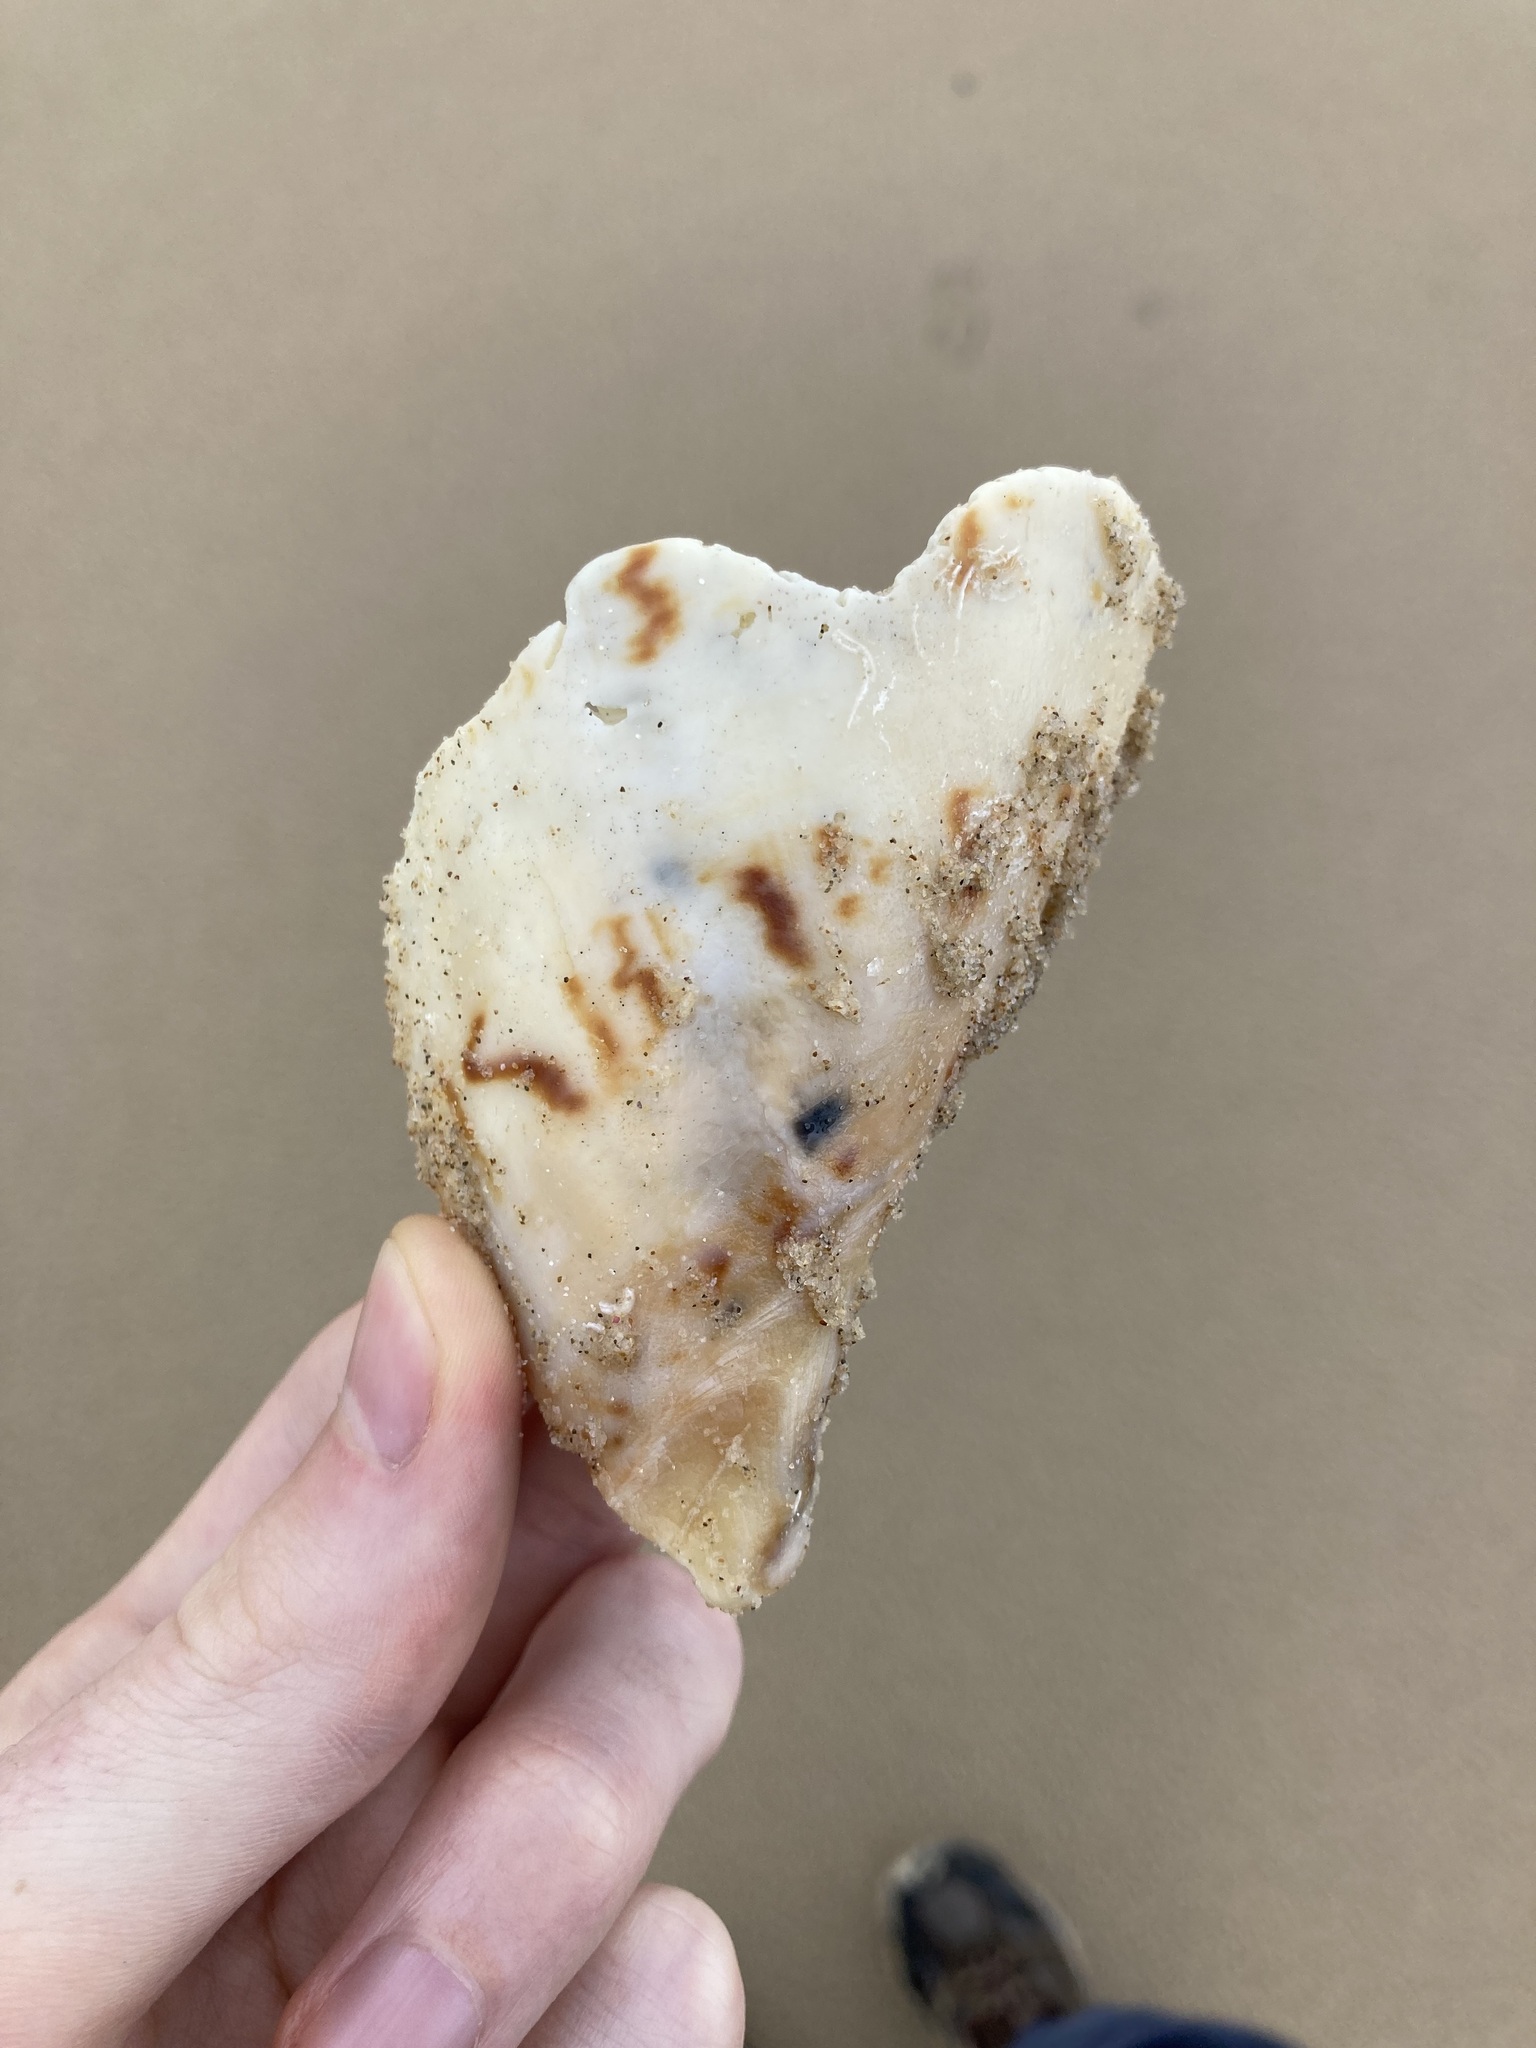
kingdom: Animalia
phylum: Mollusca
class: Gastropoda
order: Neogastropoda
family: Volutidae
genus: Cymbiola
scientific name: Cymbiola magnifica
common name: Magnificent volute
